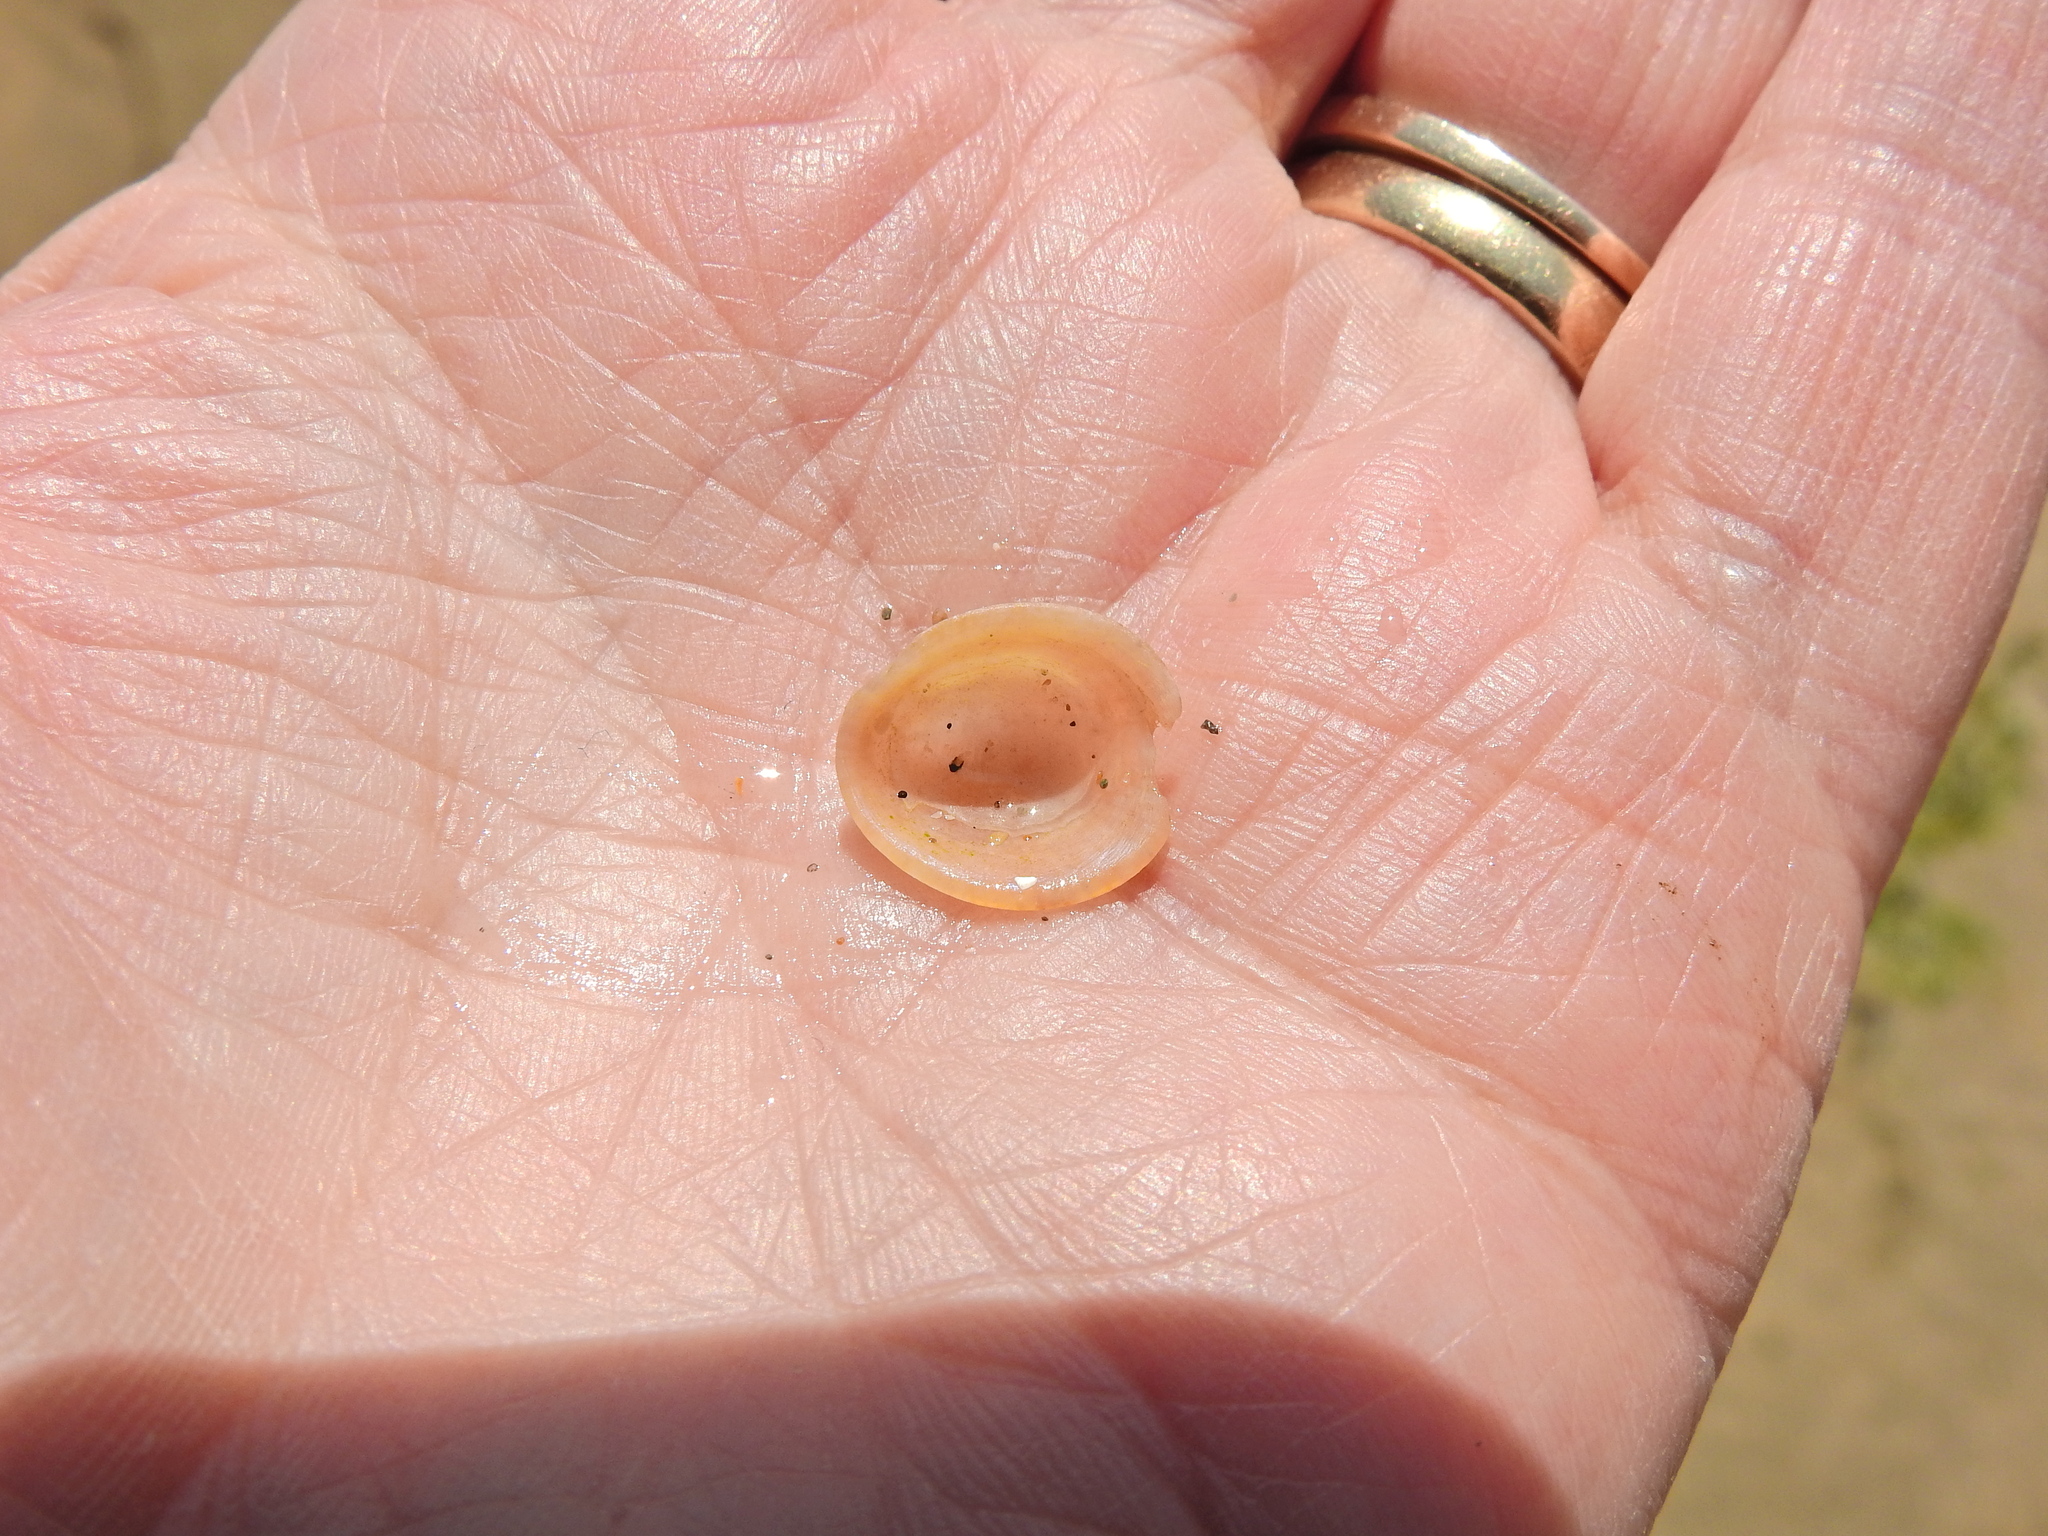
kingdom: Animalia
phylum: Mollusca
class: Gastropoda
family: Patellidae
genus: Patella
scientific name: Patella pellucida
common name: Blue-rayed limpet
